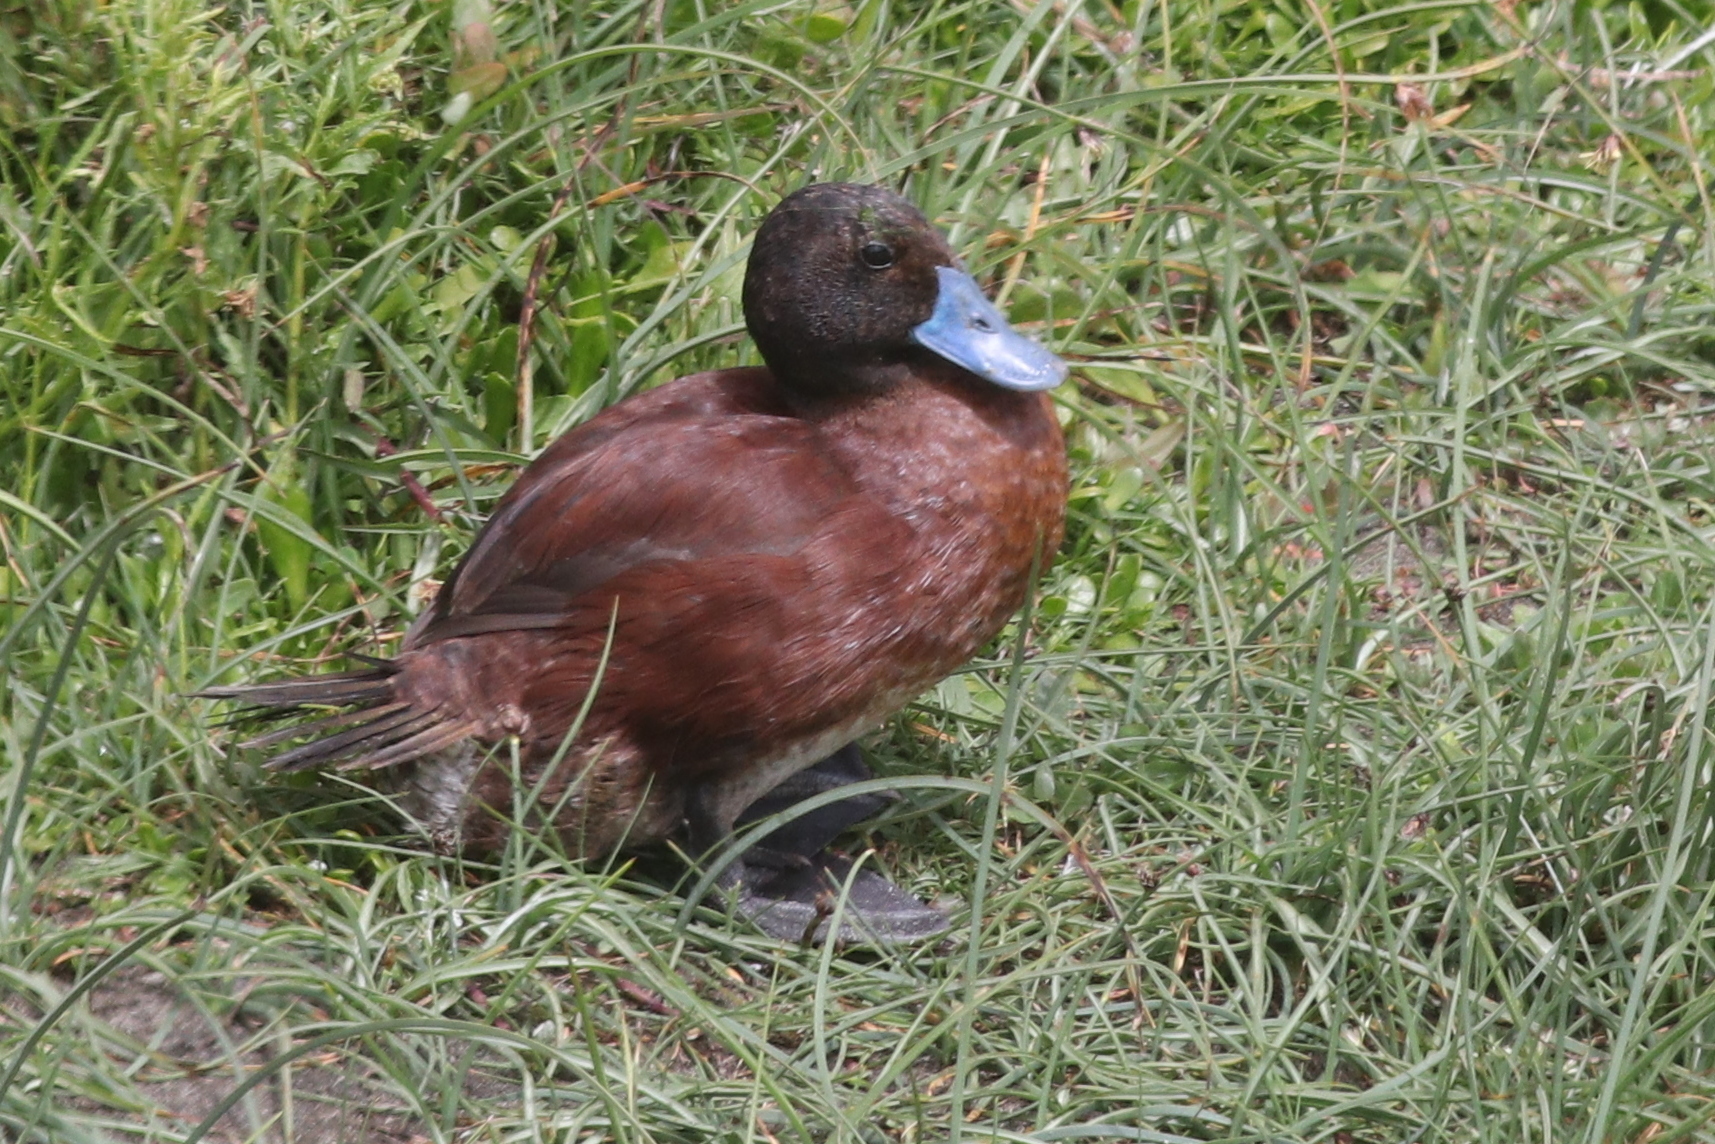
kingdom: Animalia
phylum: Chordata
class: Aves
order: Anseriformes
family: Anatidae
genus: Oxyura
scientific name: Oxyura vittata
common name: Lake duck
